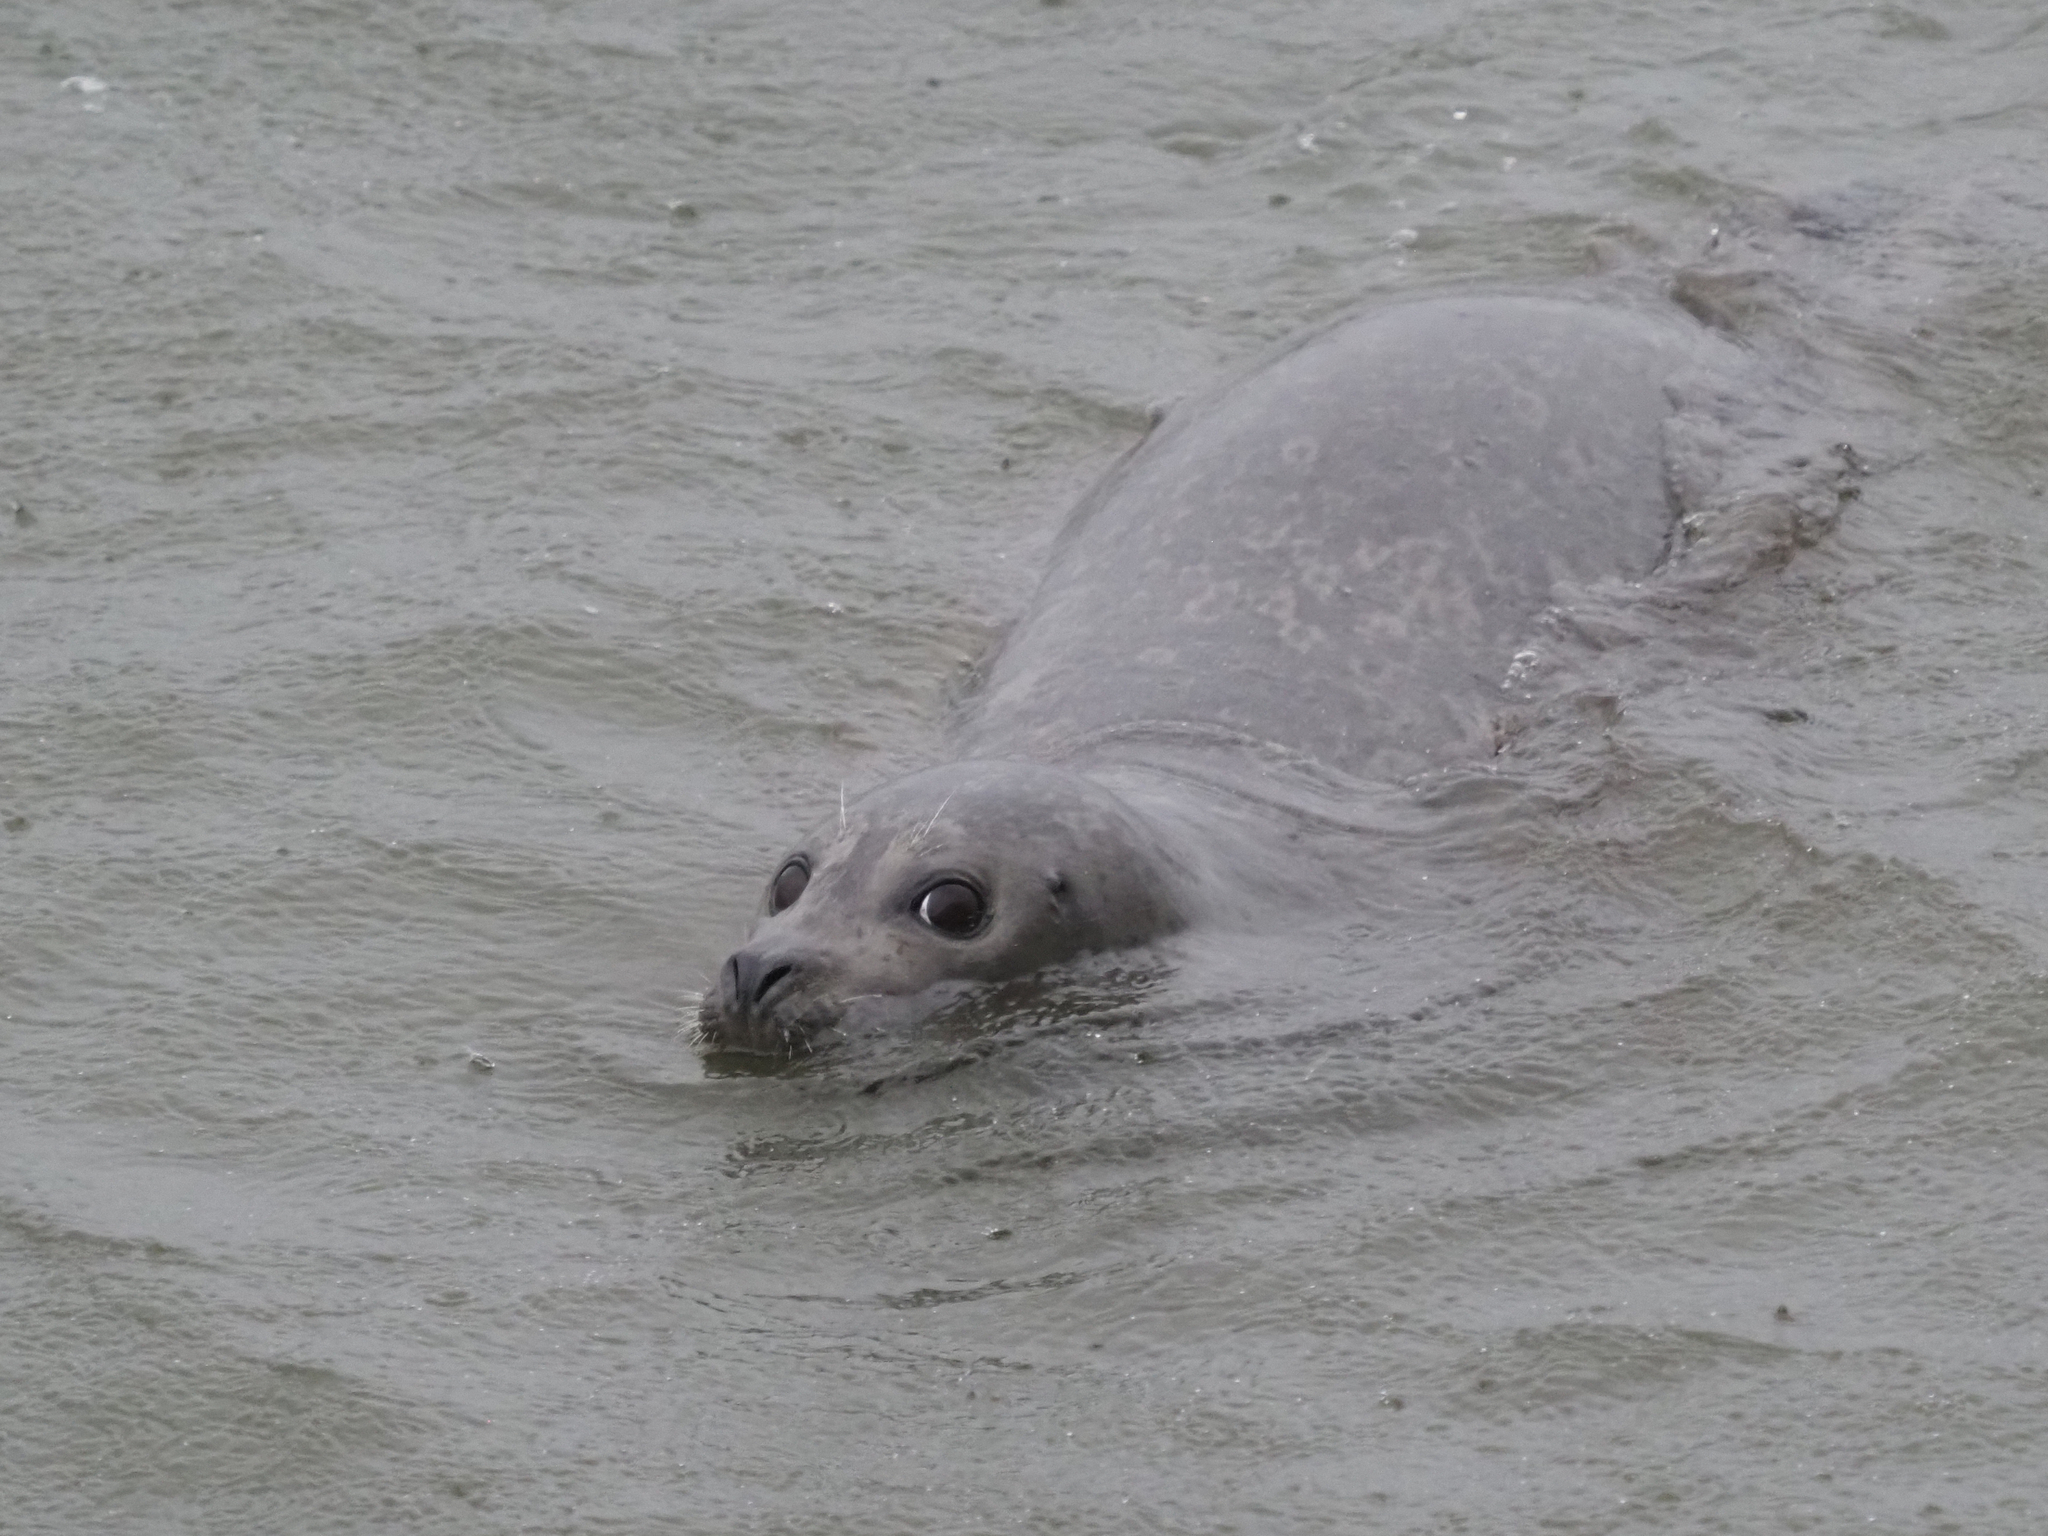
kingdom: Animalia
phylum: Chordata
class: Mammalia
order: Carnivora
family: Phocidae
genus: Phoca
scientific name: Phoca vitulina
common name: Harbor seal
